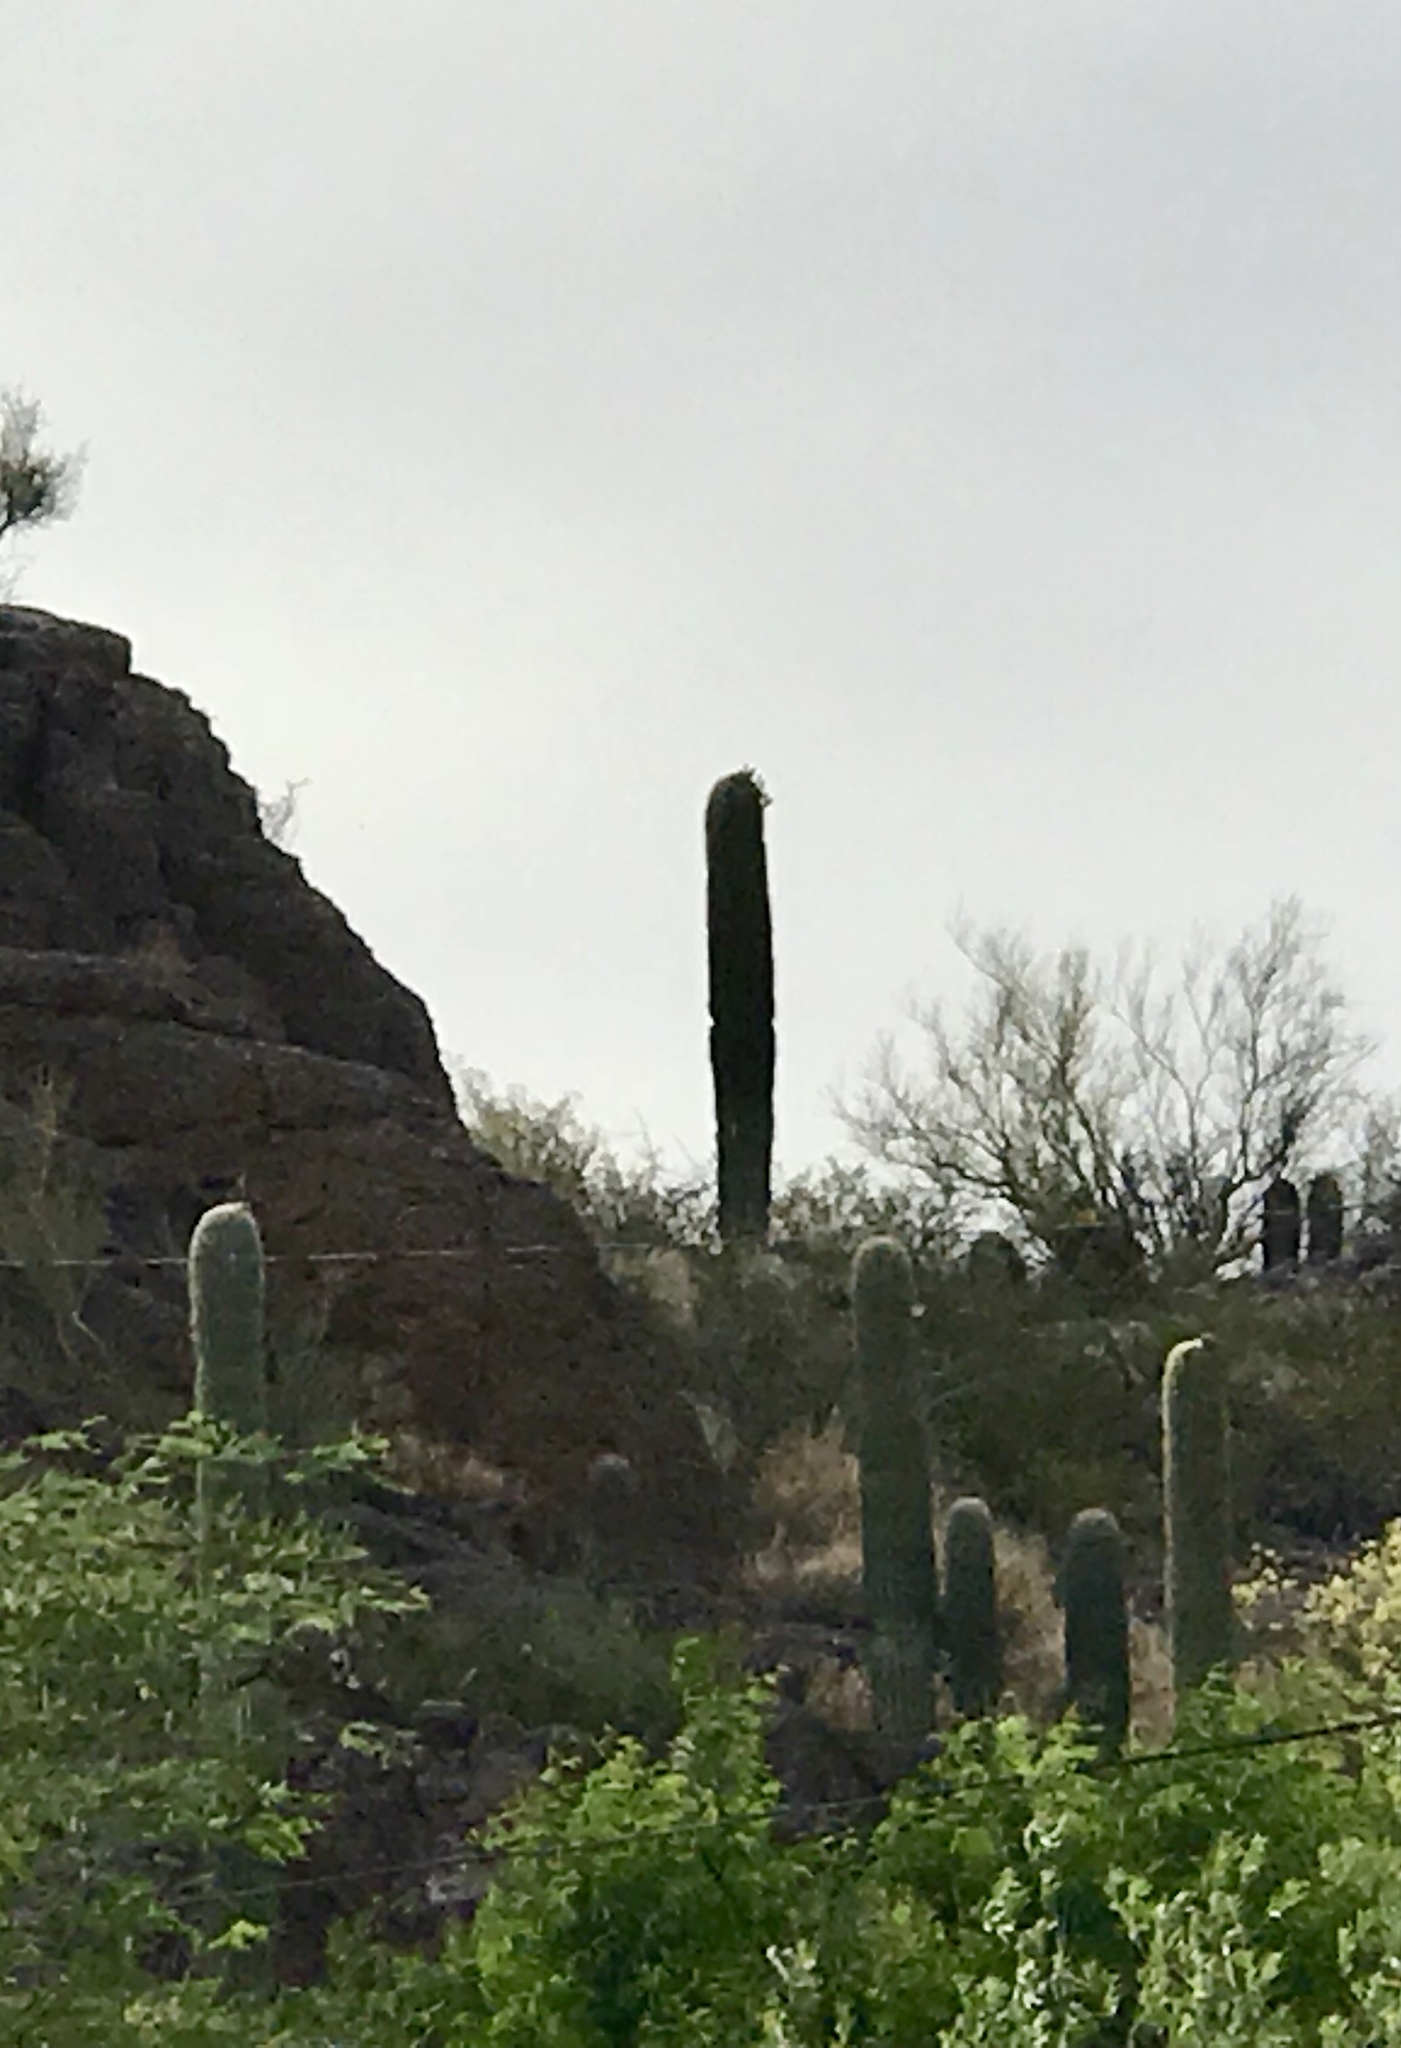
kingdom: Plantae
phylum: Tracheophyta
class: Magnoliopsida
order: Caryophyllales
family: Cactaceae
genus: Carnegiea
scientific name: Carnegiea gigantea
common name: Saguaro
